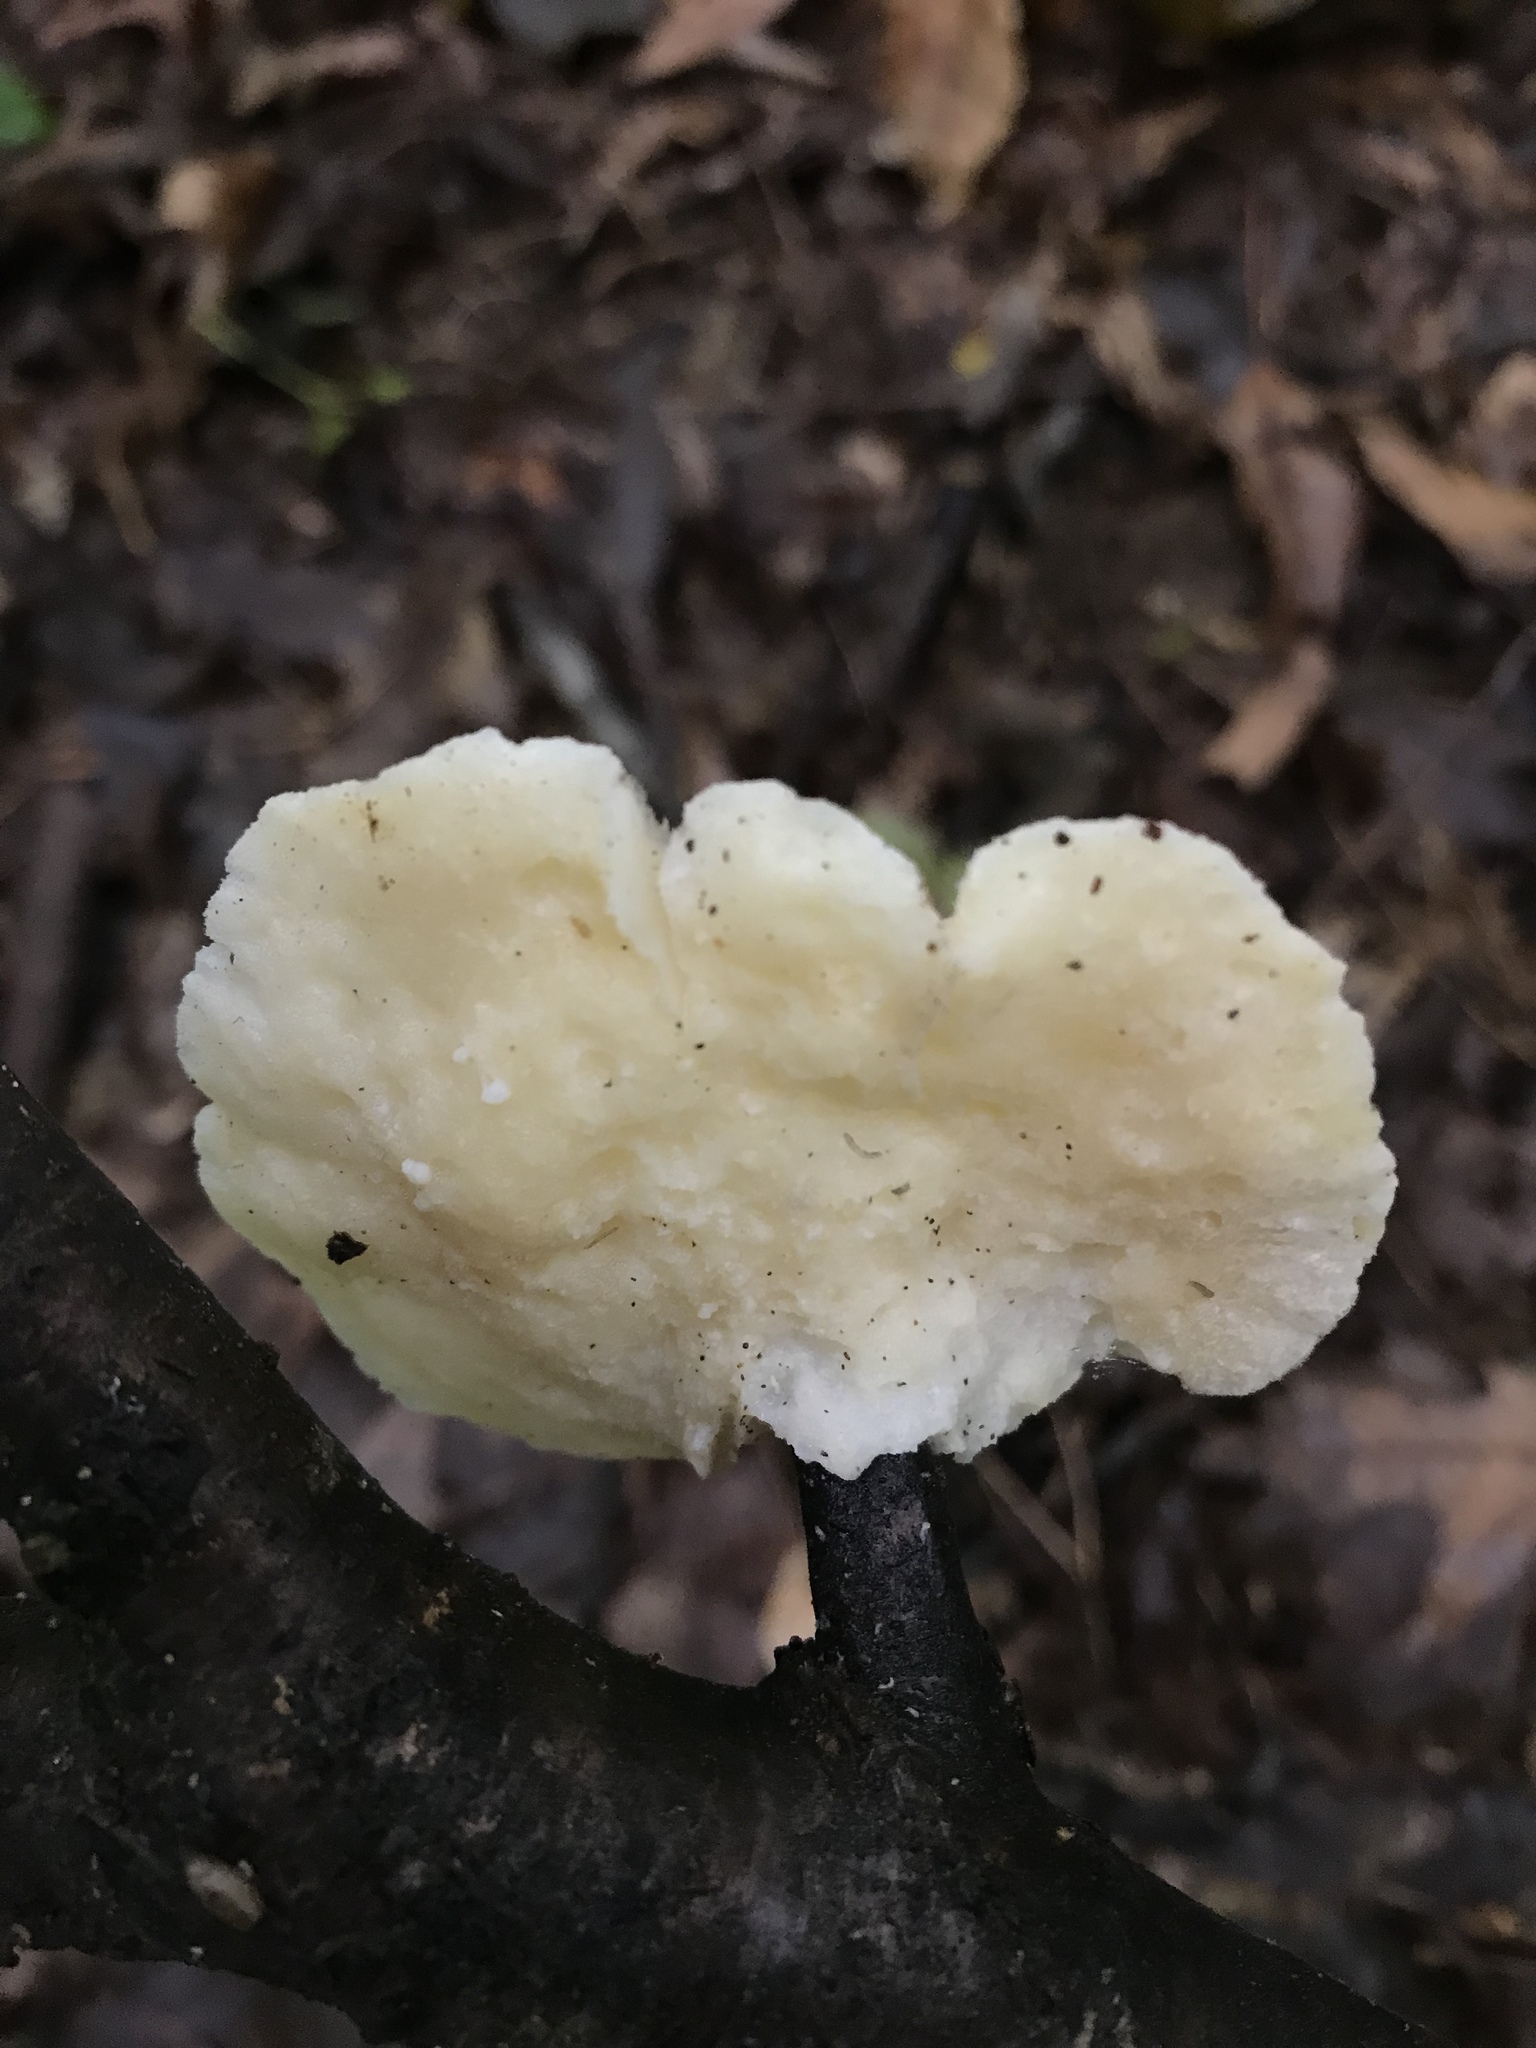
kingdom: Fungi
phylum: Basidiomycota
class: Agaricomycetes
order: Polyporales
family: Incrustoporiaceae
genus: Tyromyces
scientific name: Tyromyces galactinus
